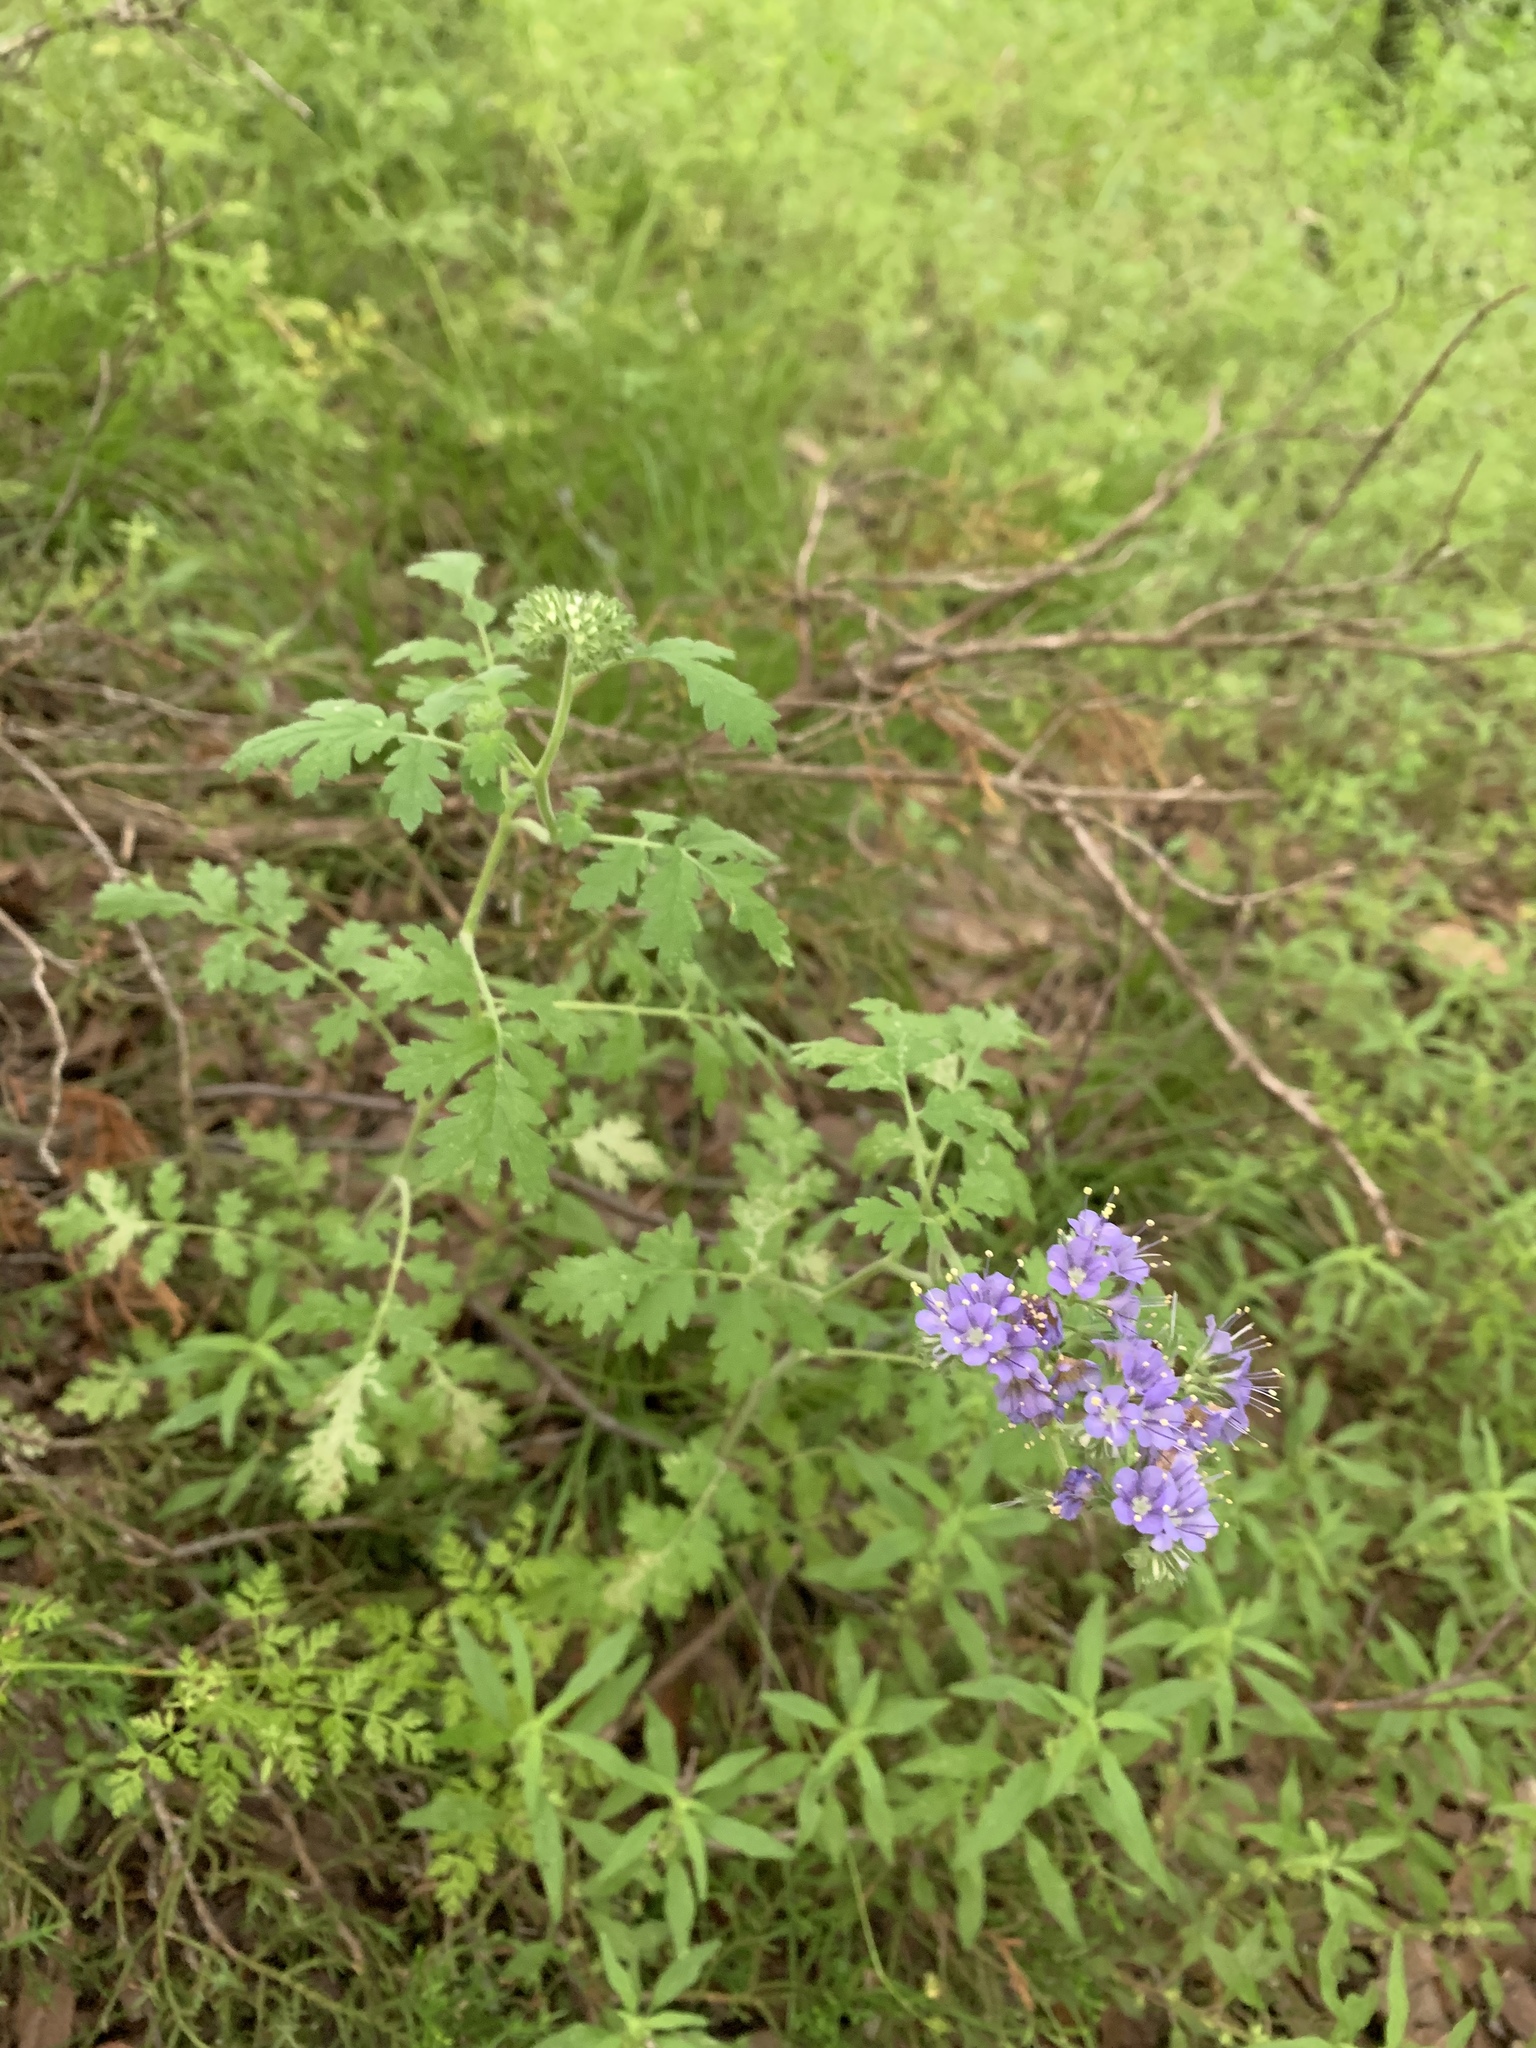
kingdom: Plantae
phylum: Tracheophyta
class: Magnoliopsida
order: Boraginales
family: Hydrophyllaceae
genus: Phacelia
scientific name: Phacelia congesta
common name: Blue curls
